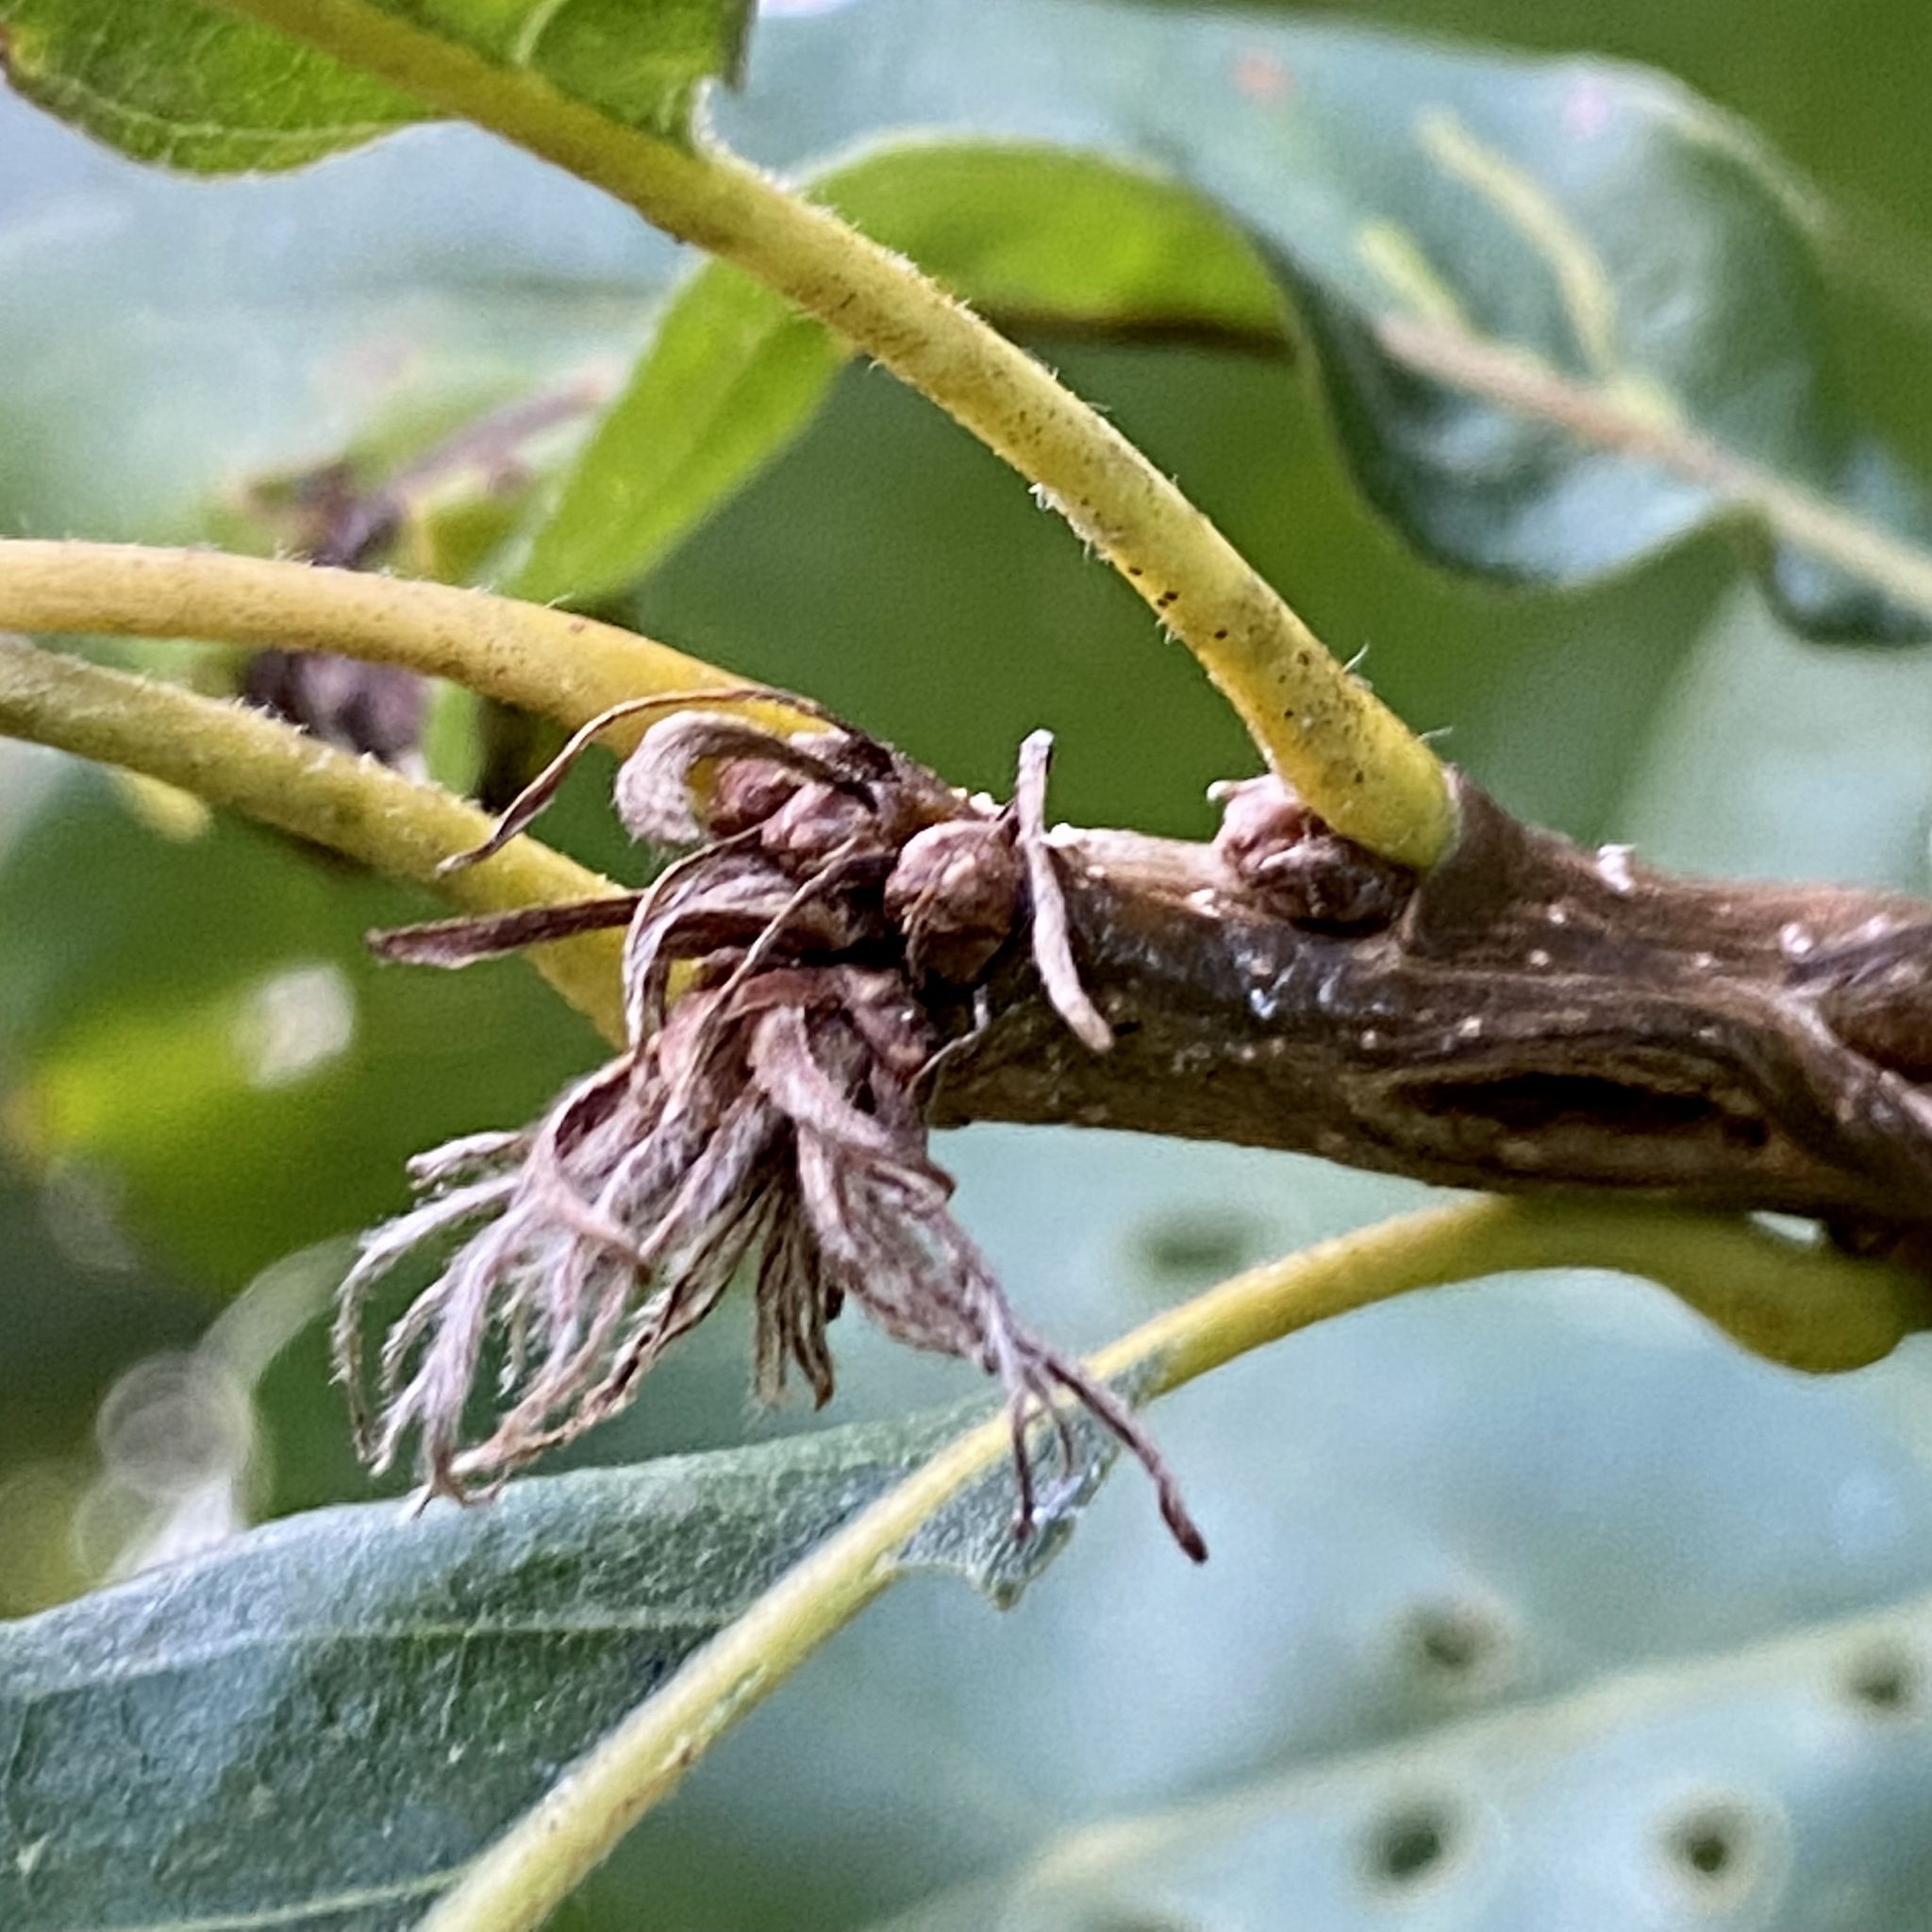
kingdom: Animalia
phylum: Arthropoda
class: Insecta
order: Hymenoptera
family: Cynipidae
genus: Andricus
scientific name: Andricus
